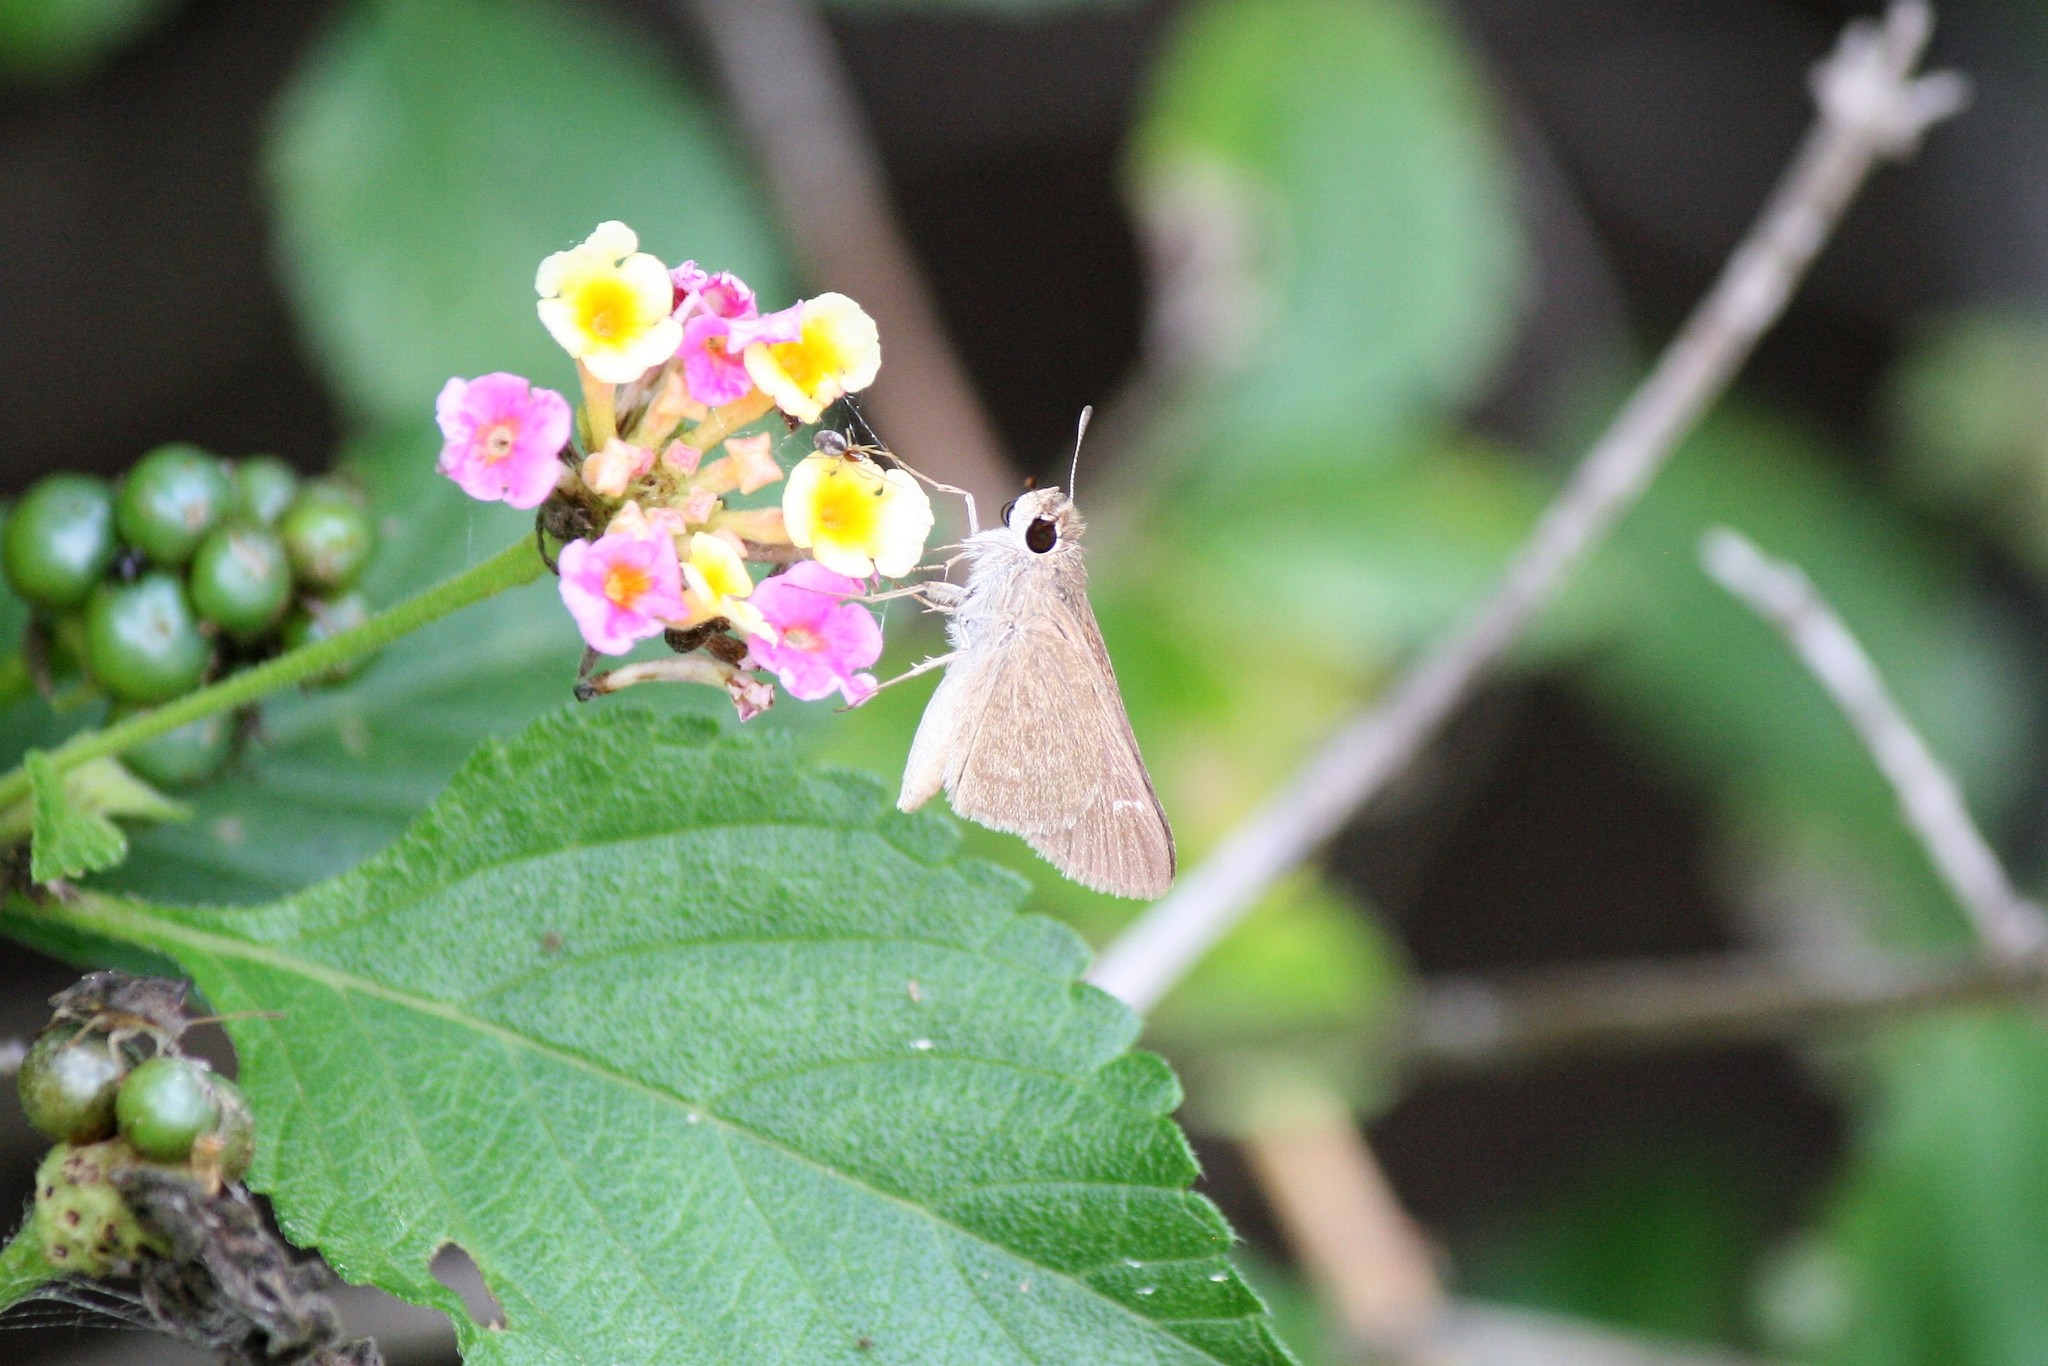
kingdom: Animalia
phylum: Arthropoda
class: Insecta
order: Lepidoptera
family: Hesperiidae
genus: Lerodea
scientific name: Lerodea eufala
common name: Eufala skipper
